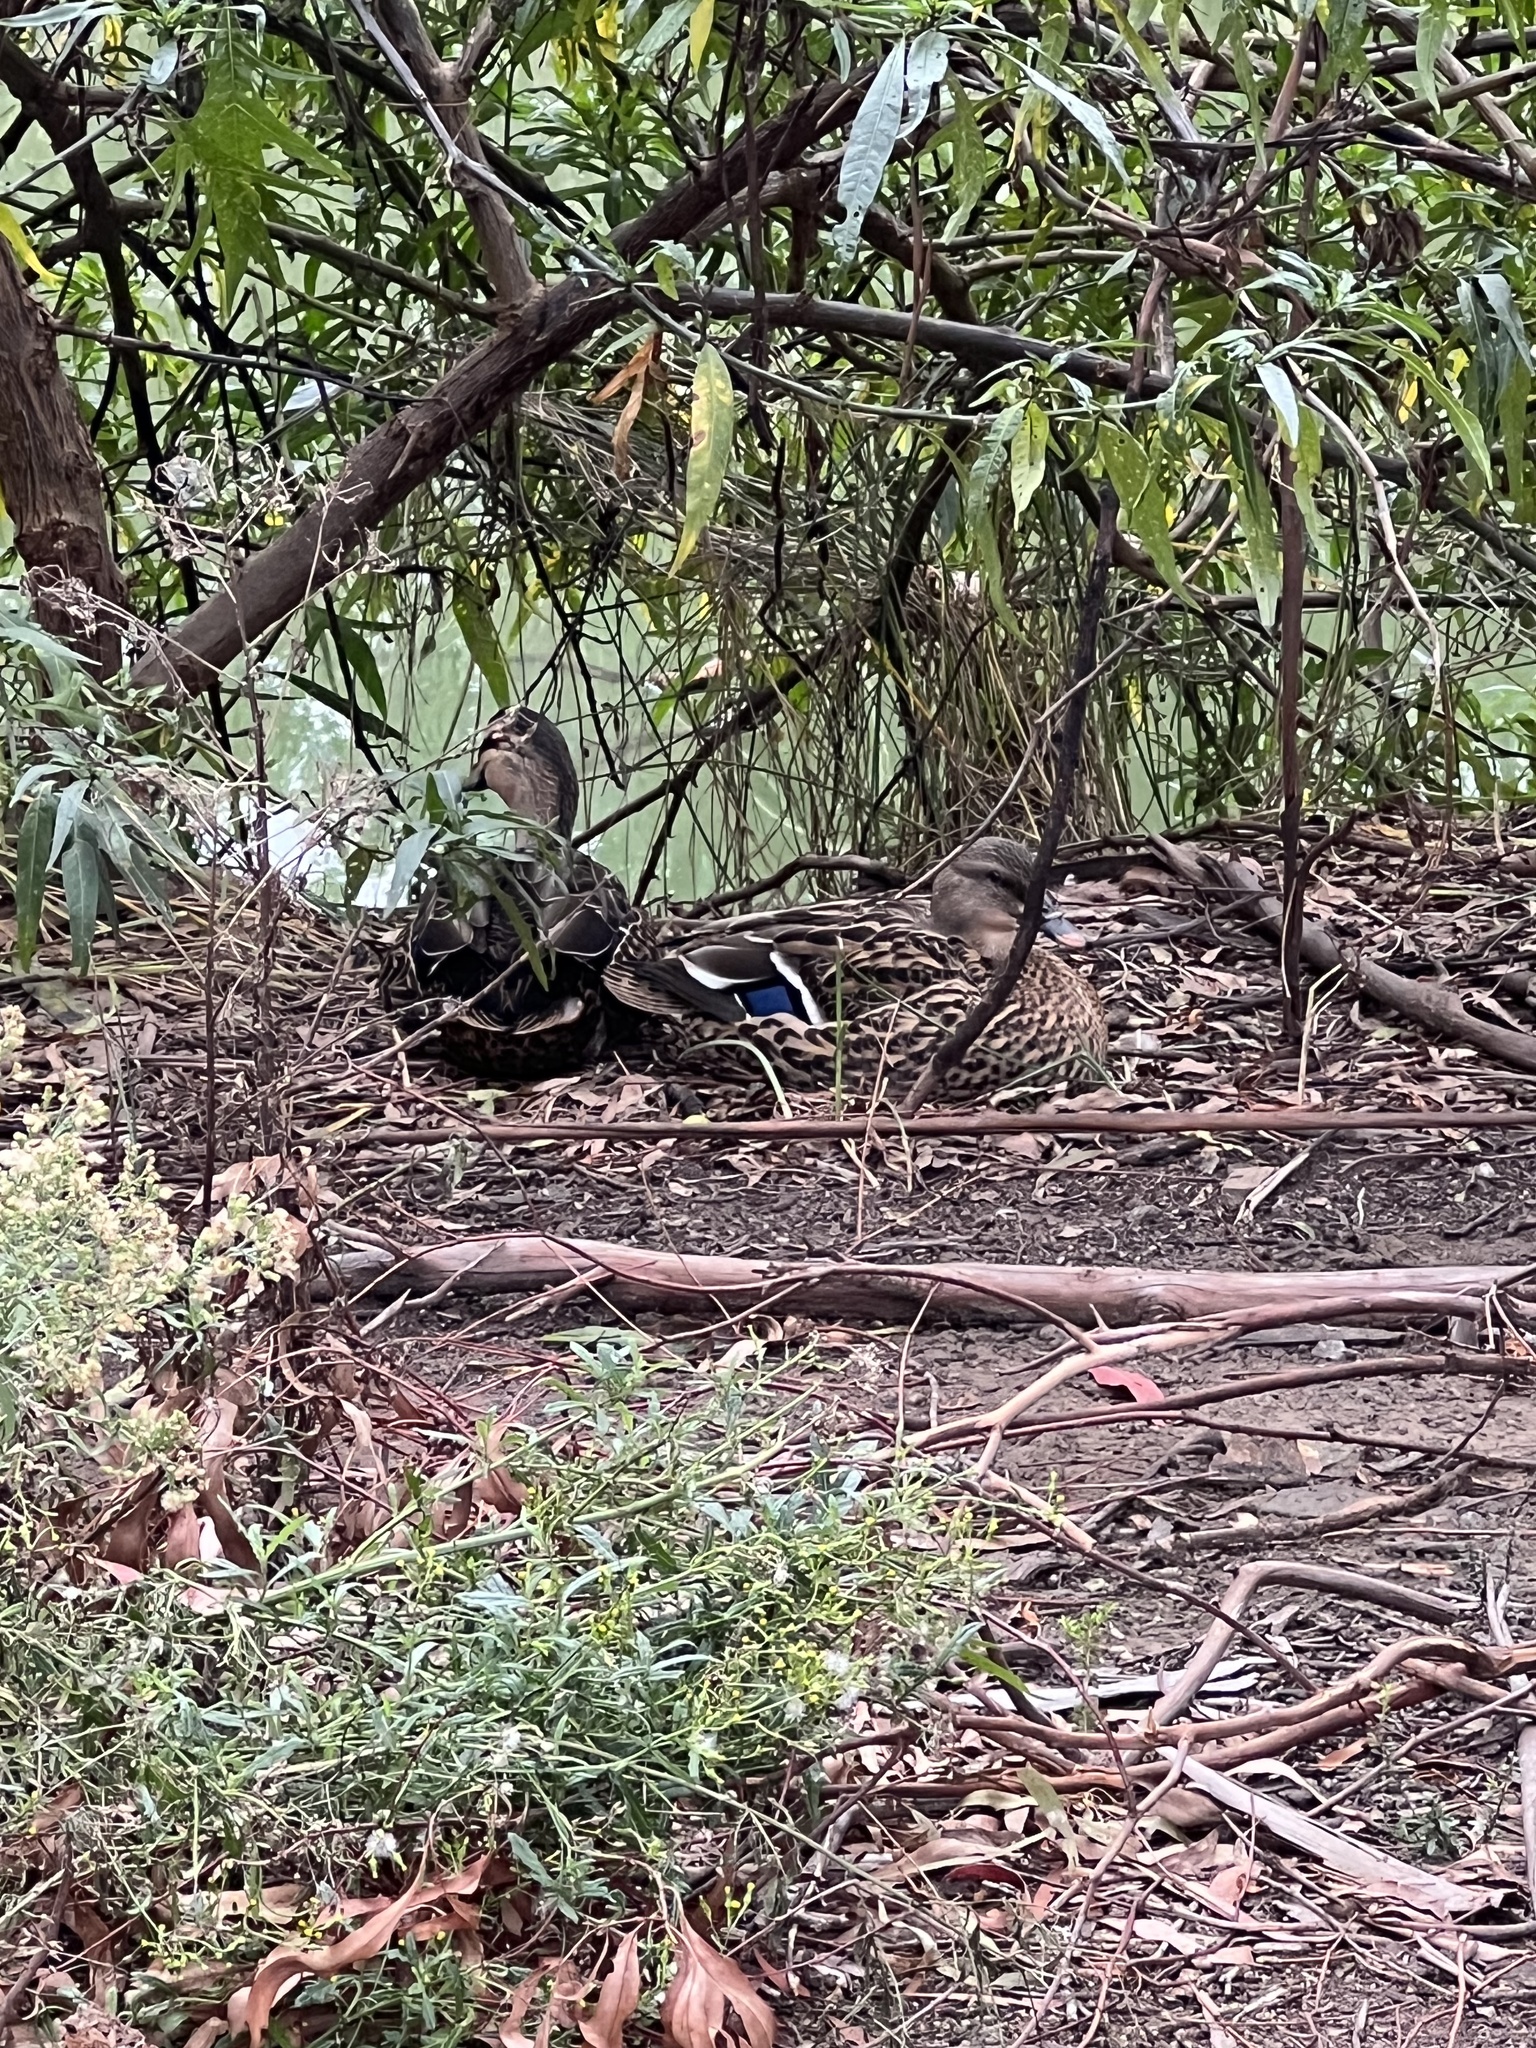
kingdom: Animalia
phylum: Chordata
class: Aves
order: Anseriformes
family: Anatidae
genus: Anas
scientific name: Anas
